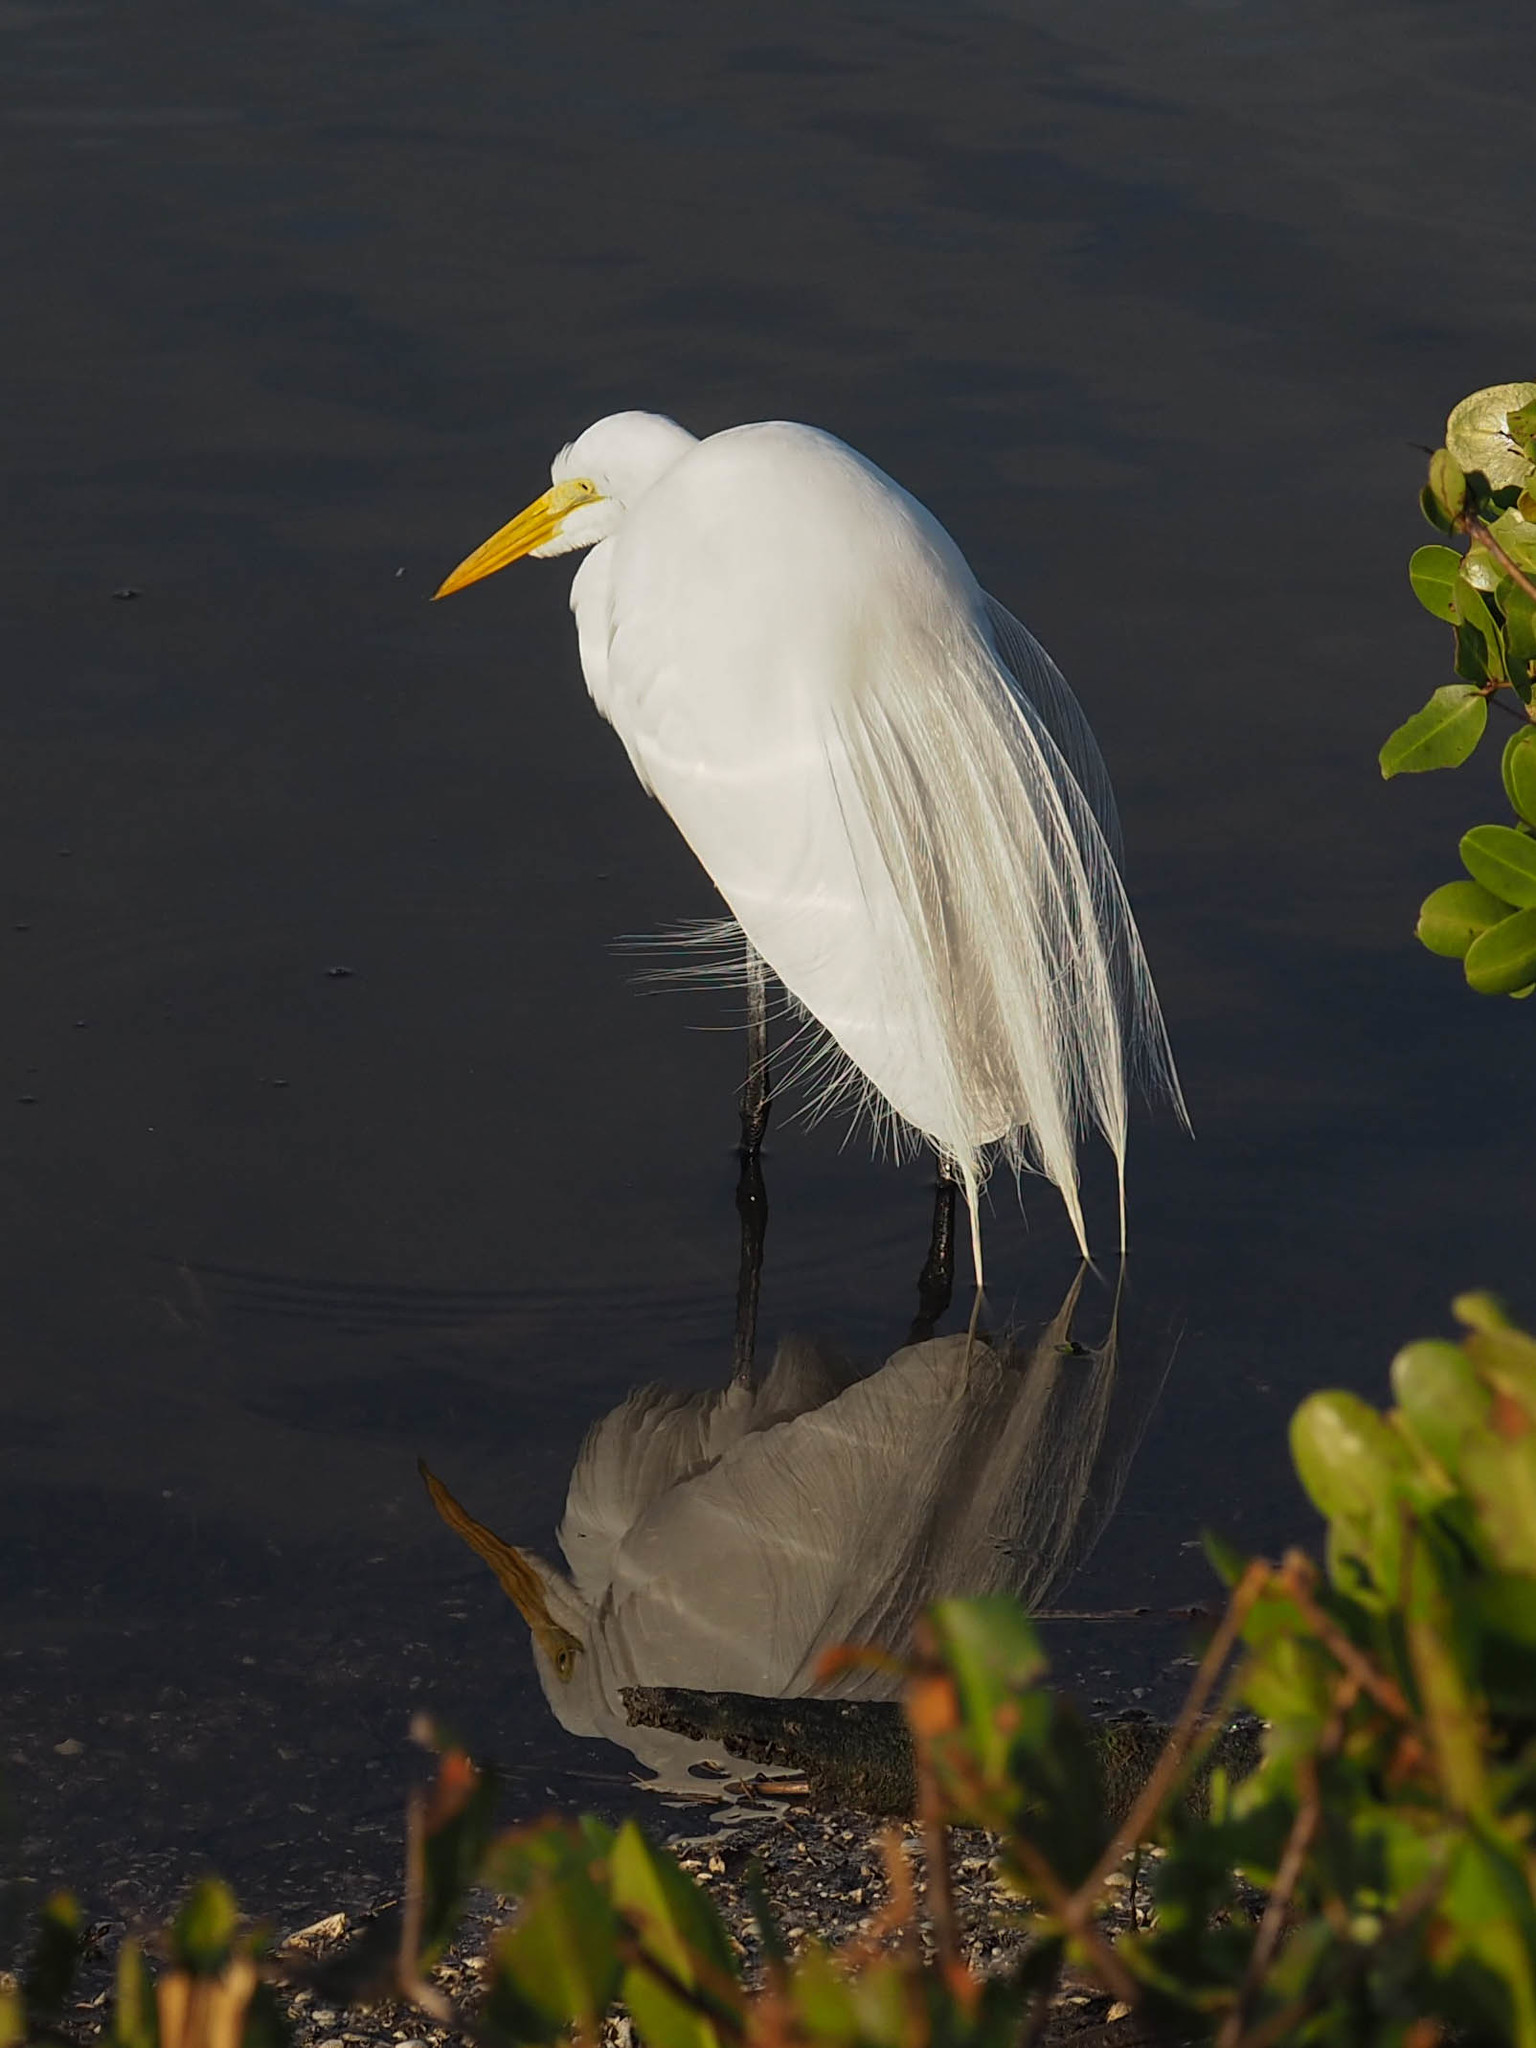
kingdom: Animalia
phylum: Chordata
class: Aves
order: Pelecaniformes
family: Ardeidae
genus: Ardea
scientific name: Ardea alba
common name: Great egret
